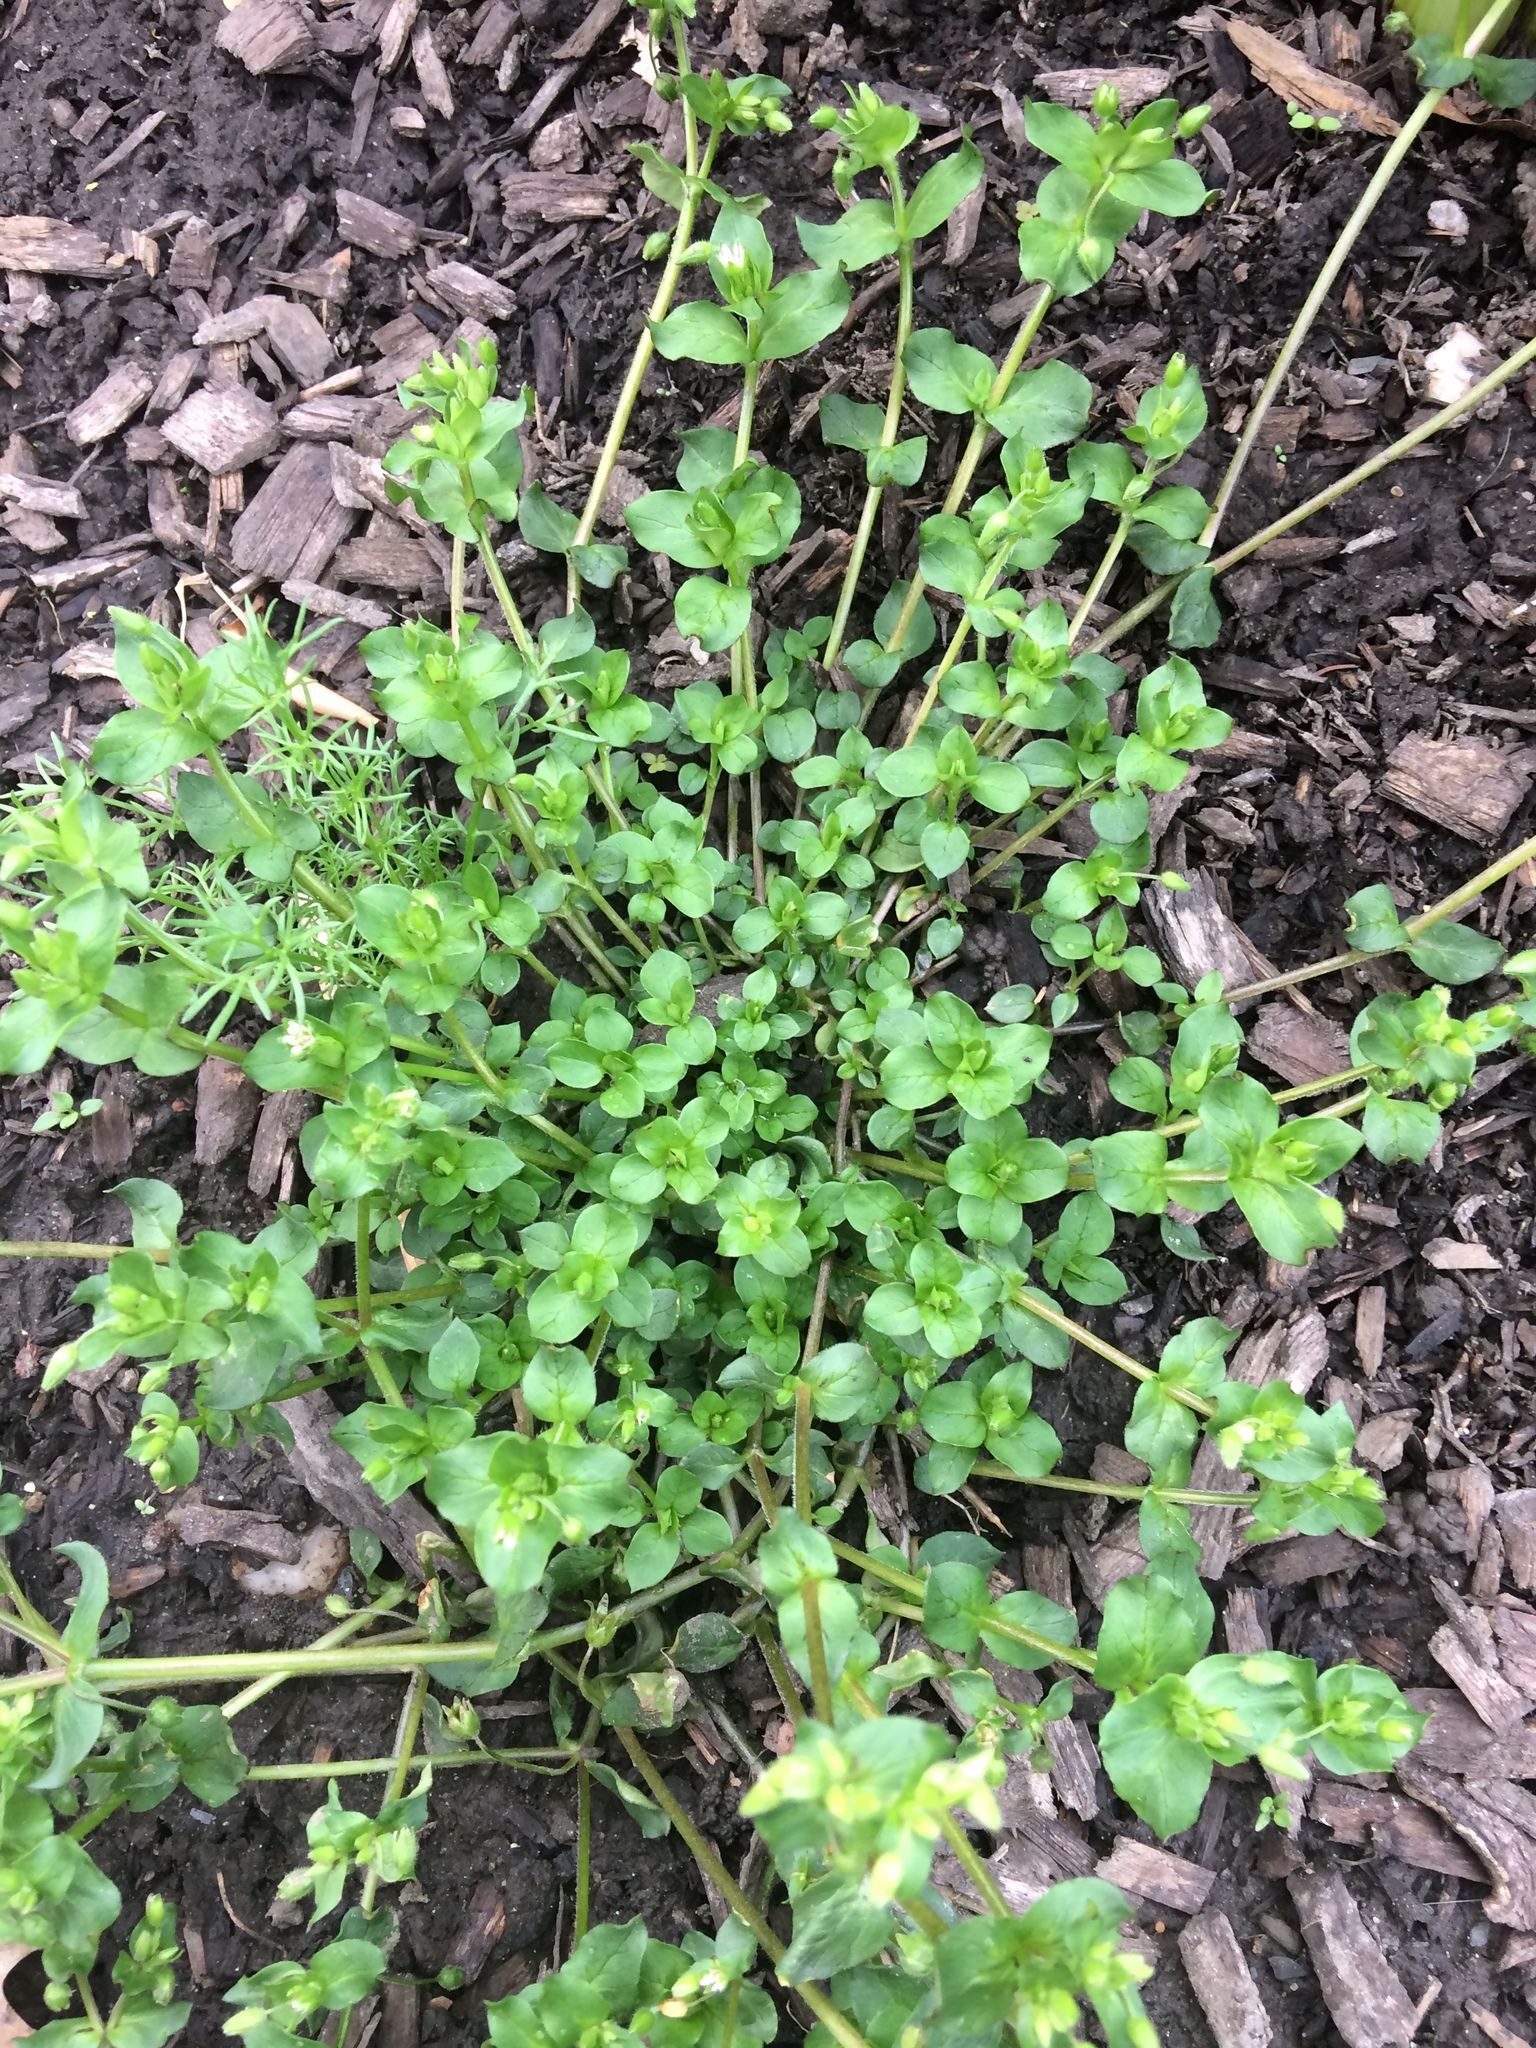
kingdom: Plantae
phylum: Tracheophyta
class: Magnoliopsida
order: Caryophyllales
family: Caryophyllaceae
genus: Stellaria
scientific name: Stellaria media
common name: Common chickweed
